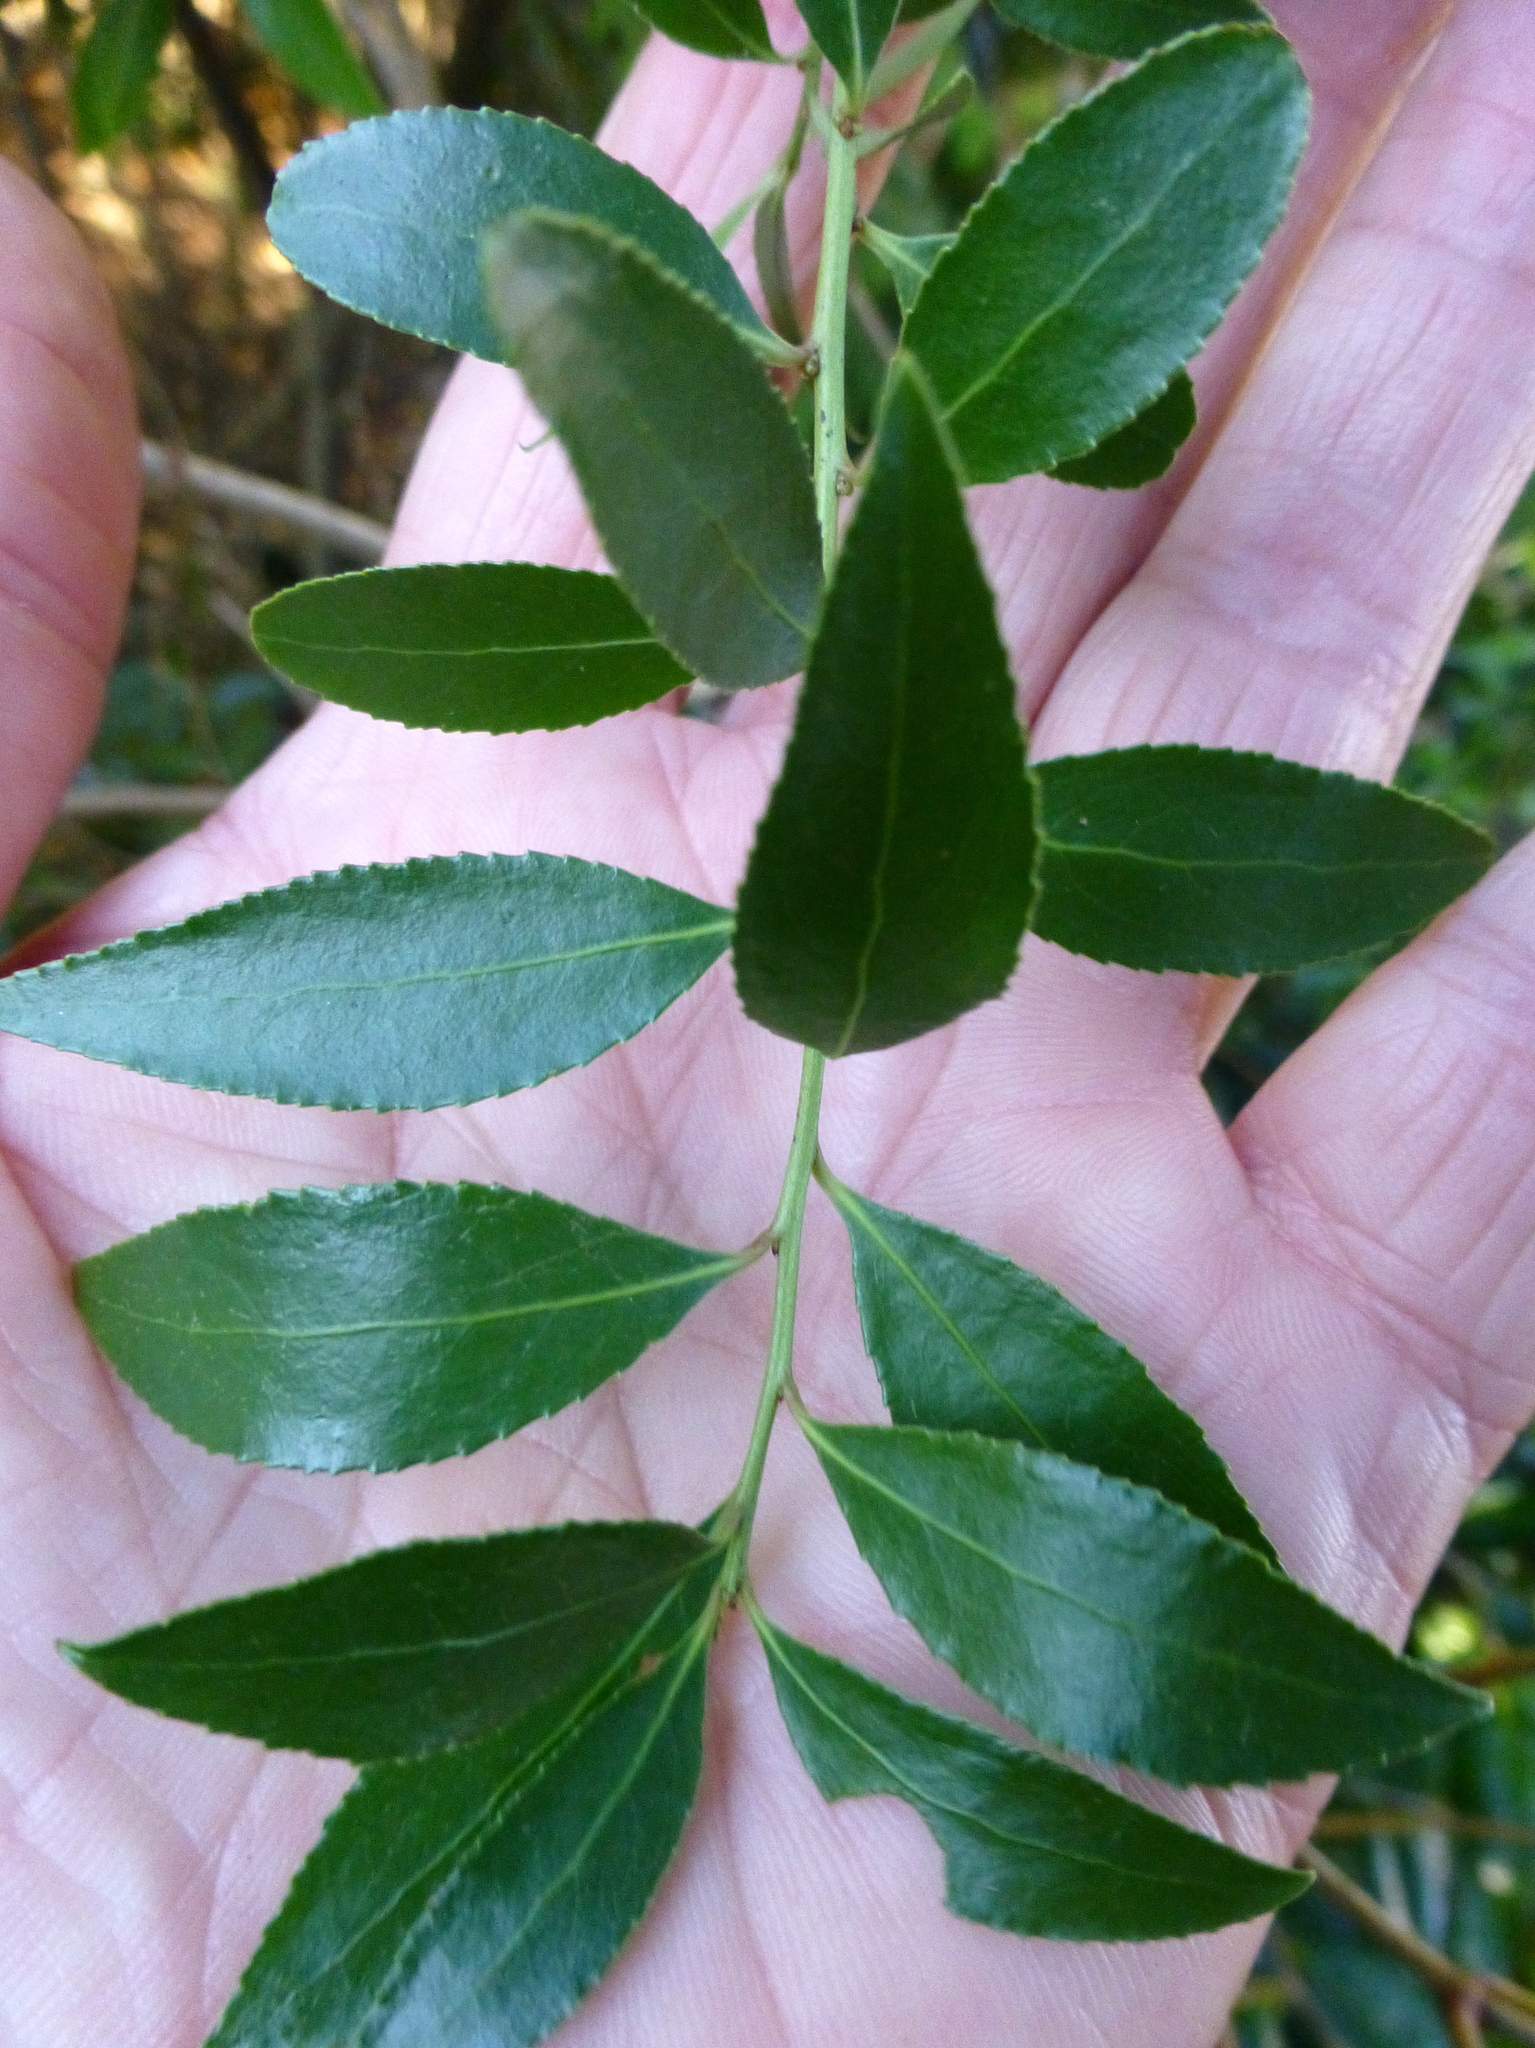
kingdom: Plantae
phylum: Tracheophyta
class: Magnoliopsida
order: Celastrales
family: Celastraceae
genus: Maytenus
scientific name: Maytenus boaria
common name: Mayten
